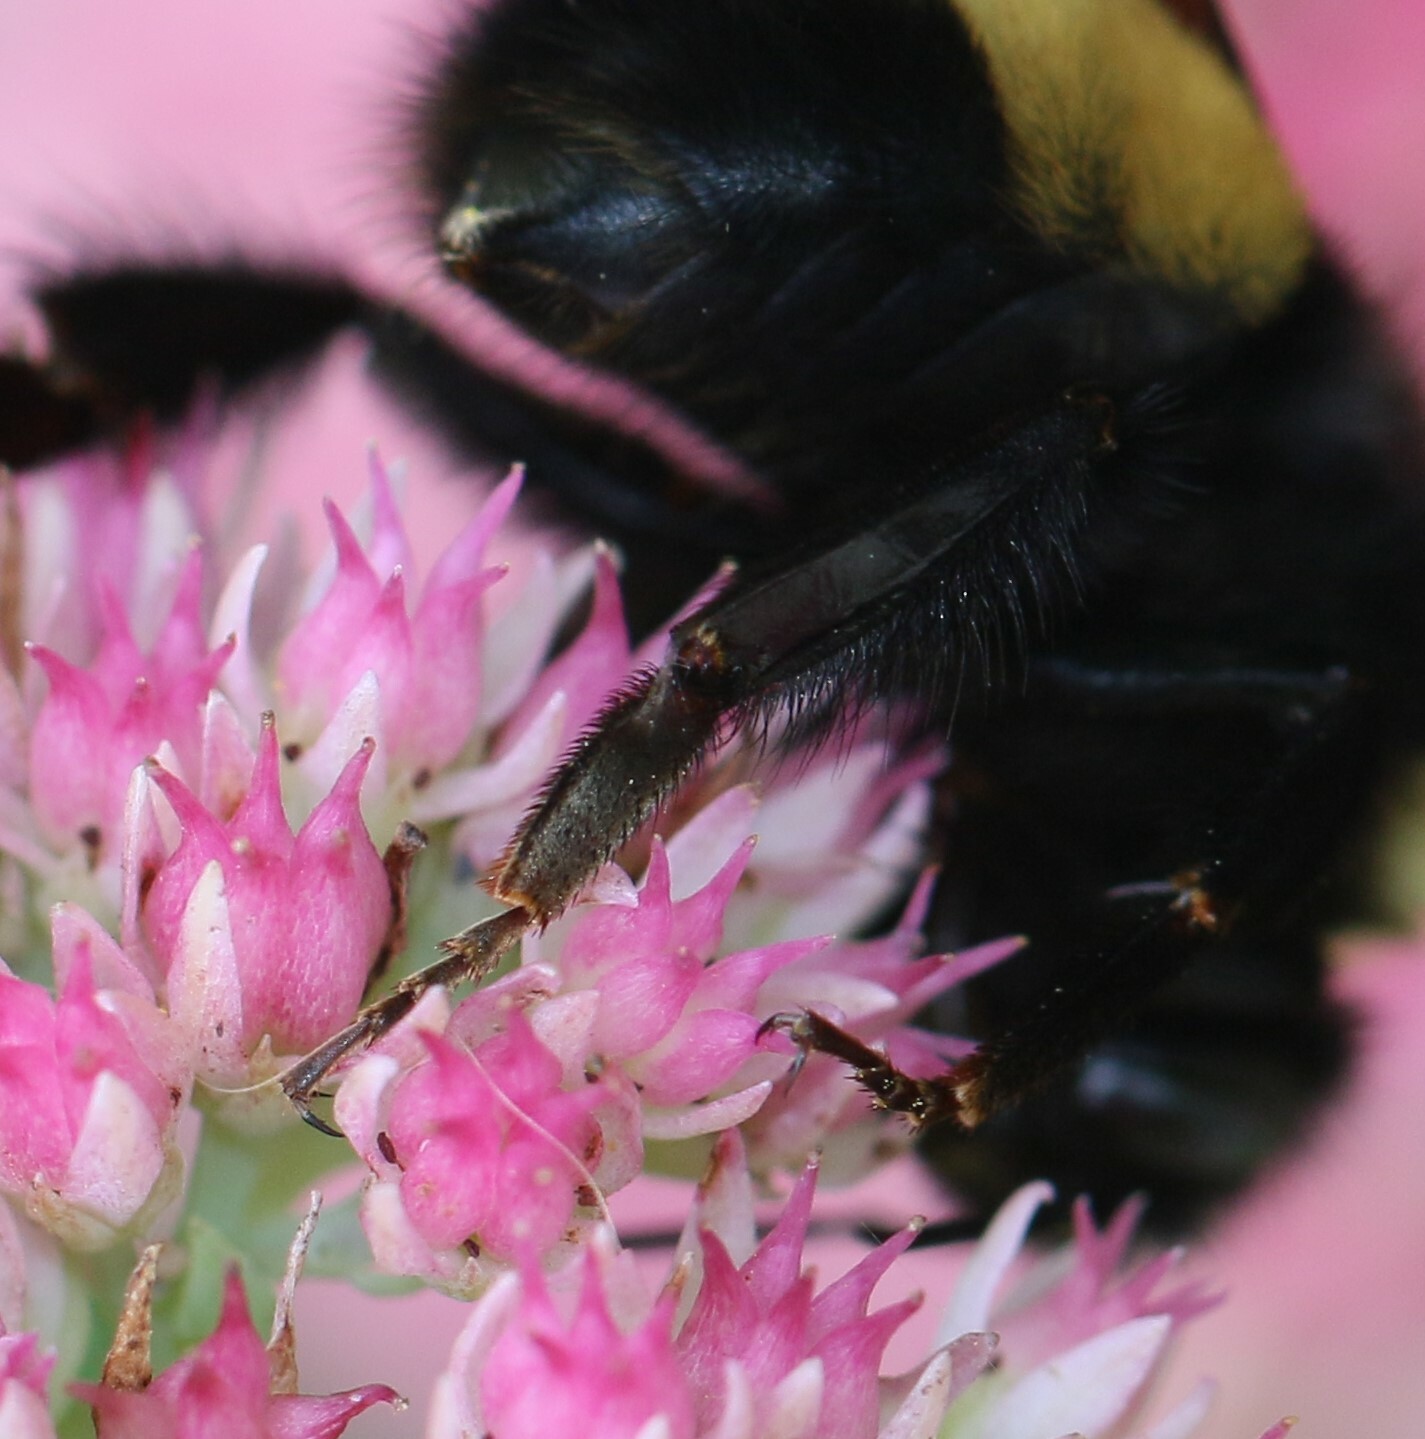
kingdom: Animalia
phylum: Arthropoda
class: Insecta
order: Hymenoptera
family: Apidae
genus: Bombus
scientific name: Bombus terricola
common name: Yellow-banded bumble bee
